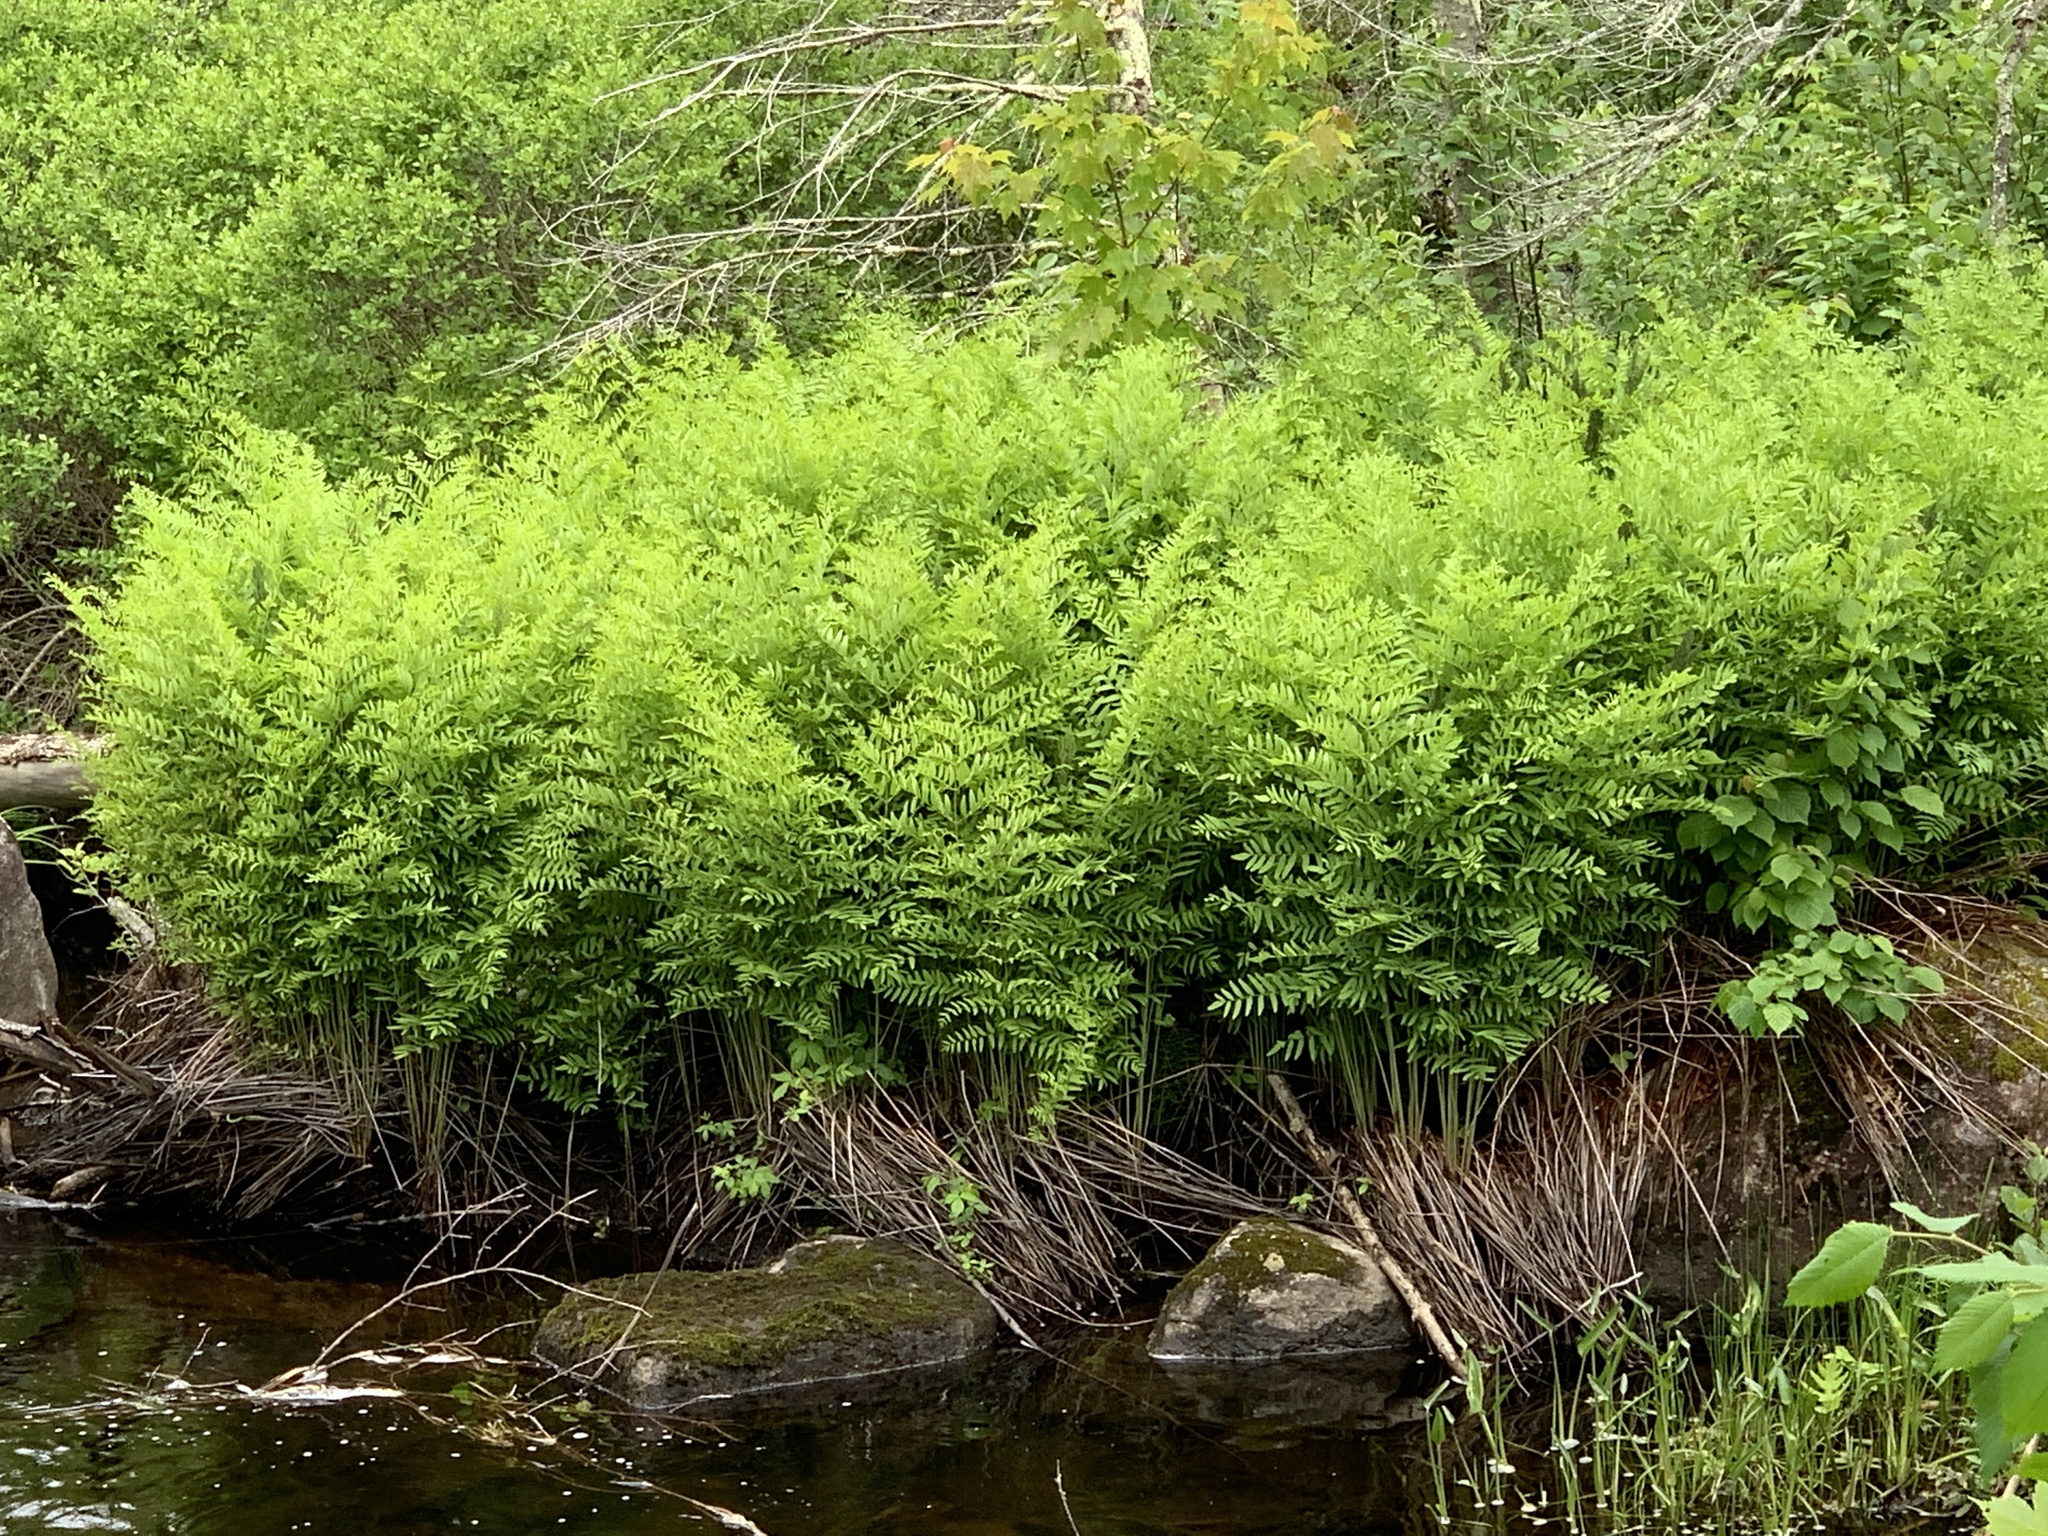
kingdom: Plantae
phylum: Tracheophyta
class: Polypodiopsida
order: Osmundales
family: Osmundaceae
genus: Osmunda
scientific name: Osmunda spectabilis
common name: American royal fern
